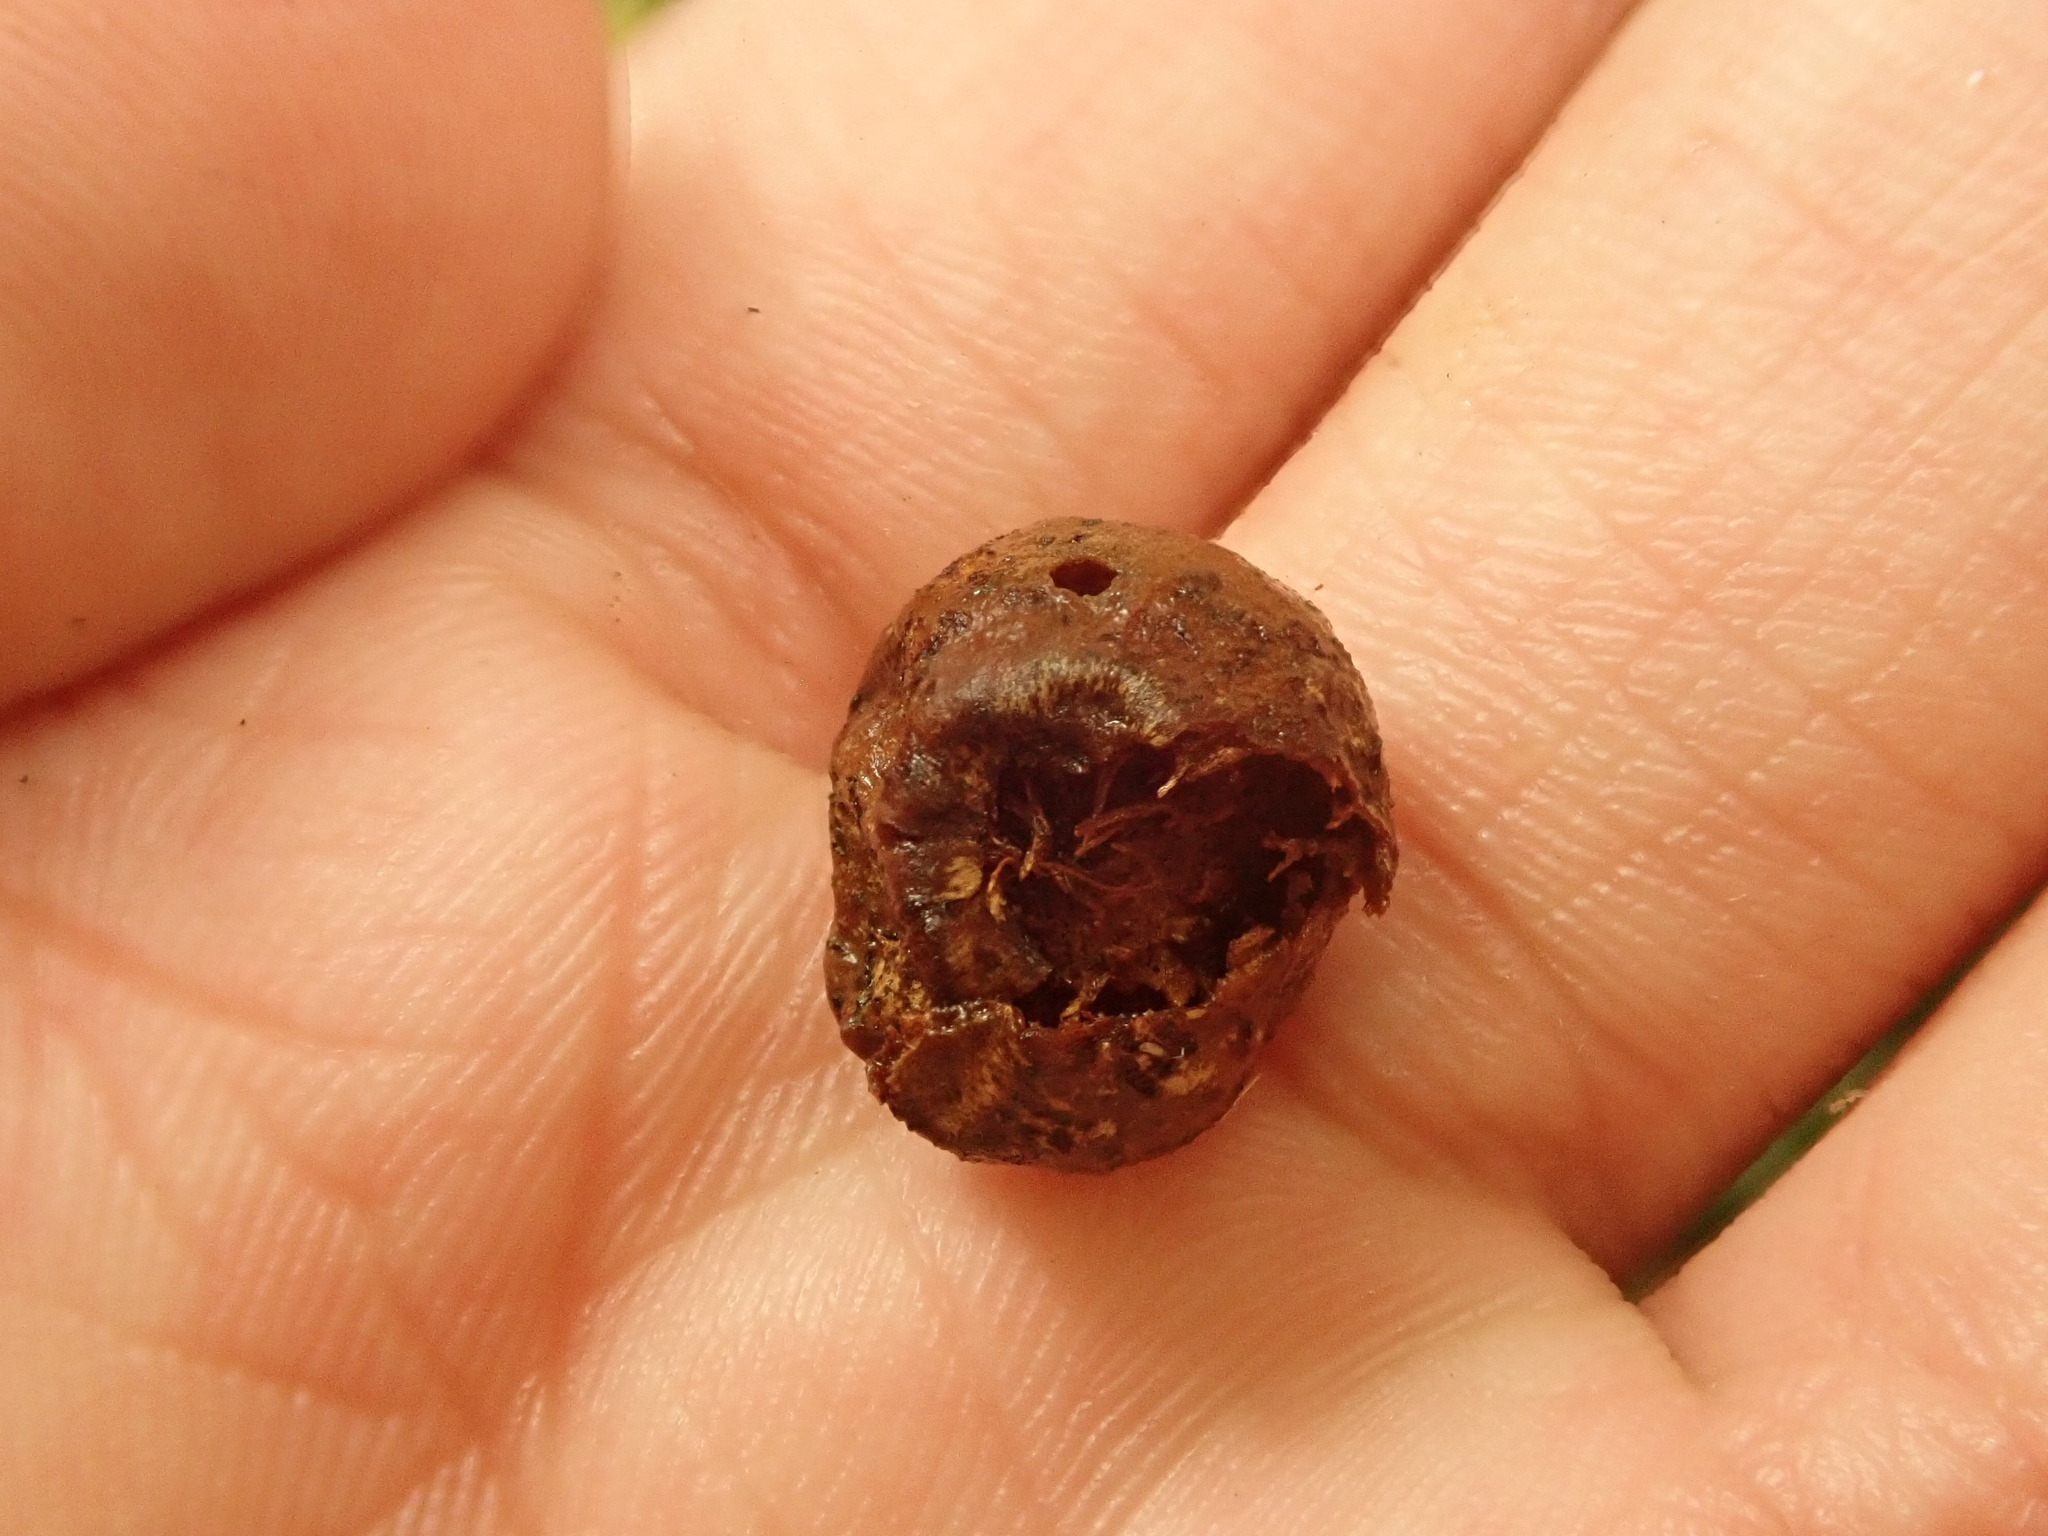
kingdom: Animalia
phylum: Arthropoda
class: Insecta
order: Hymenoptera
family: Cynipidae
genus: Disholcaspis
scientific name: Disholcaspis
